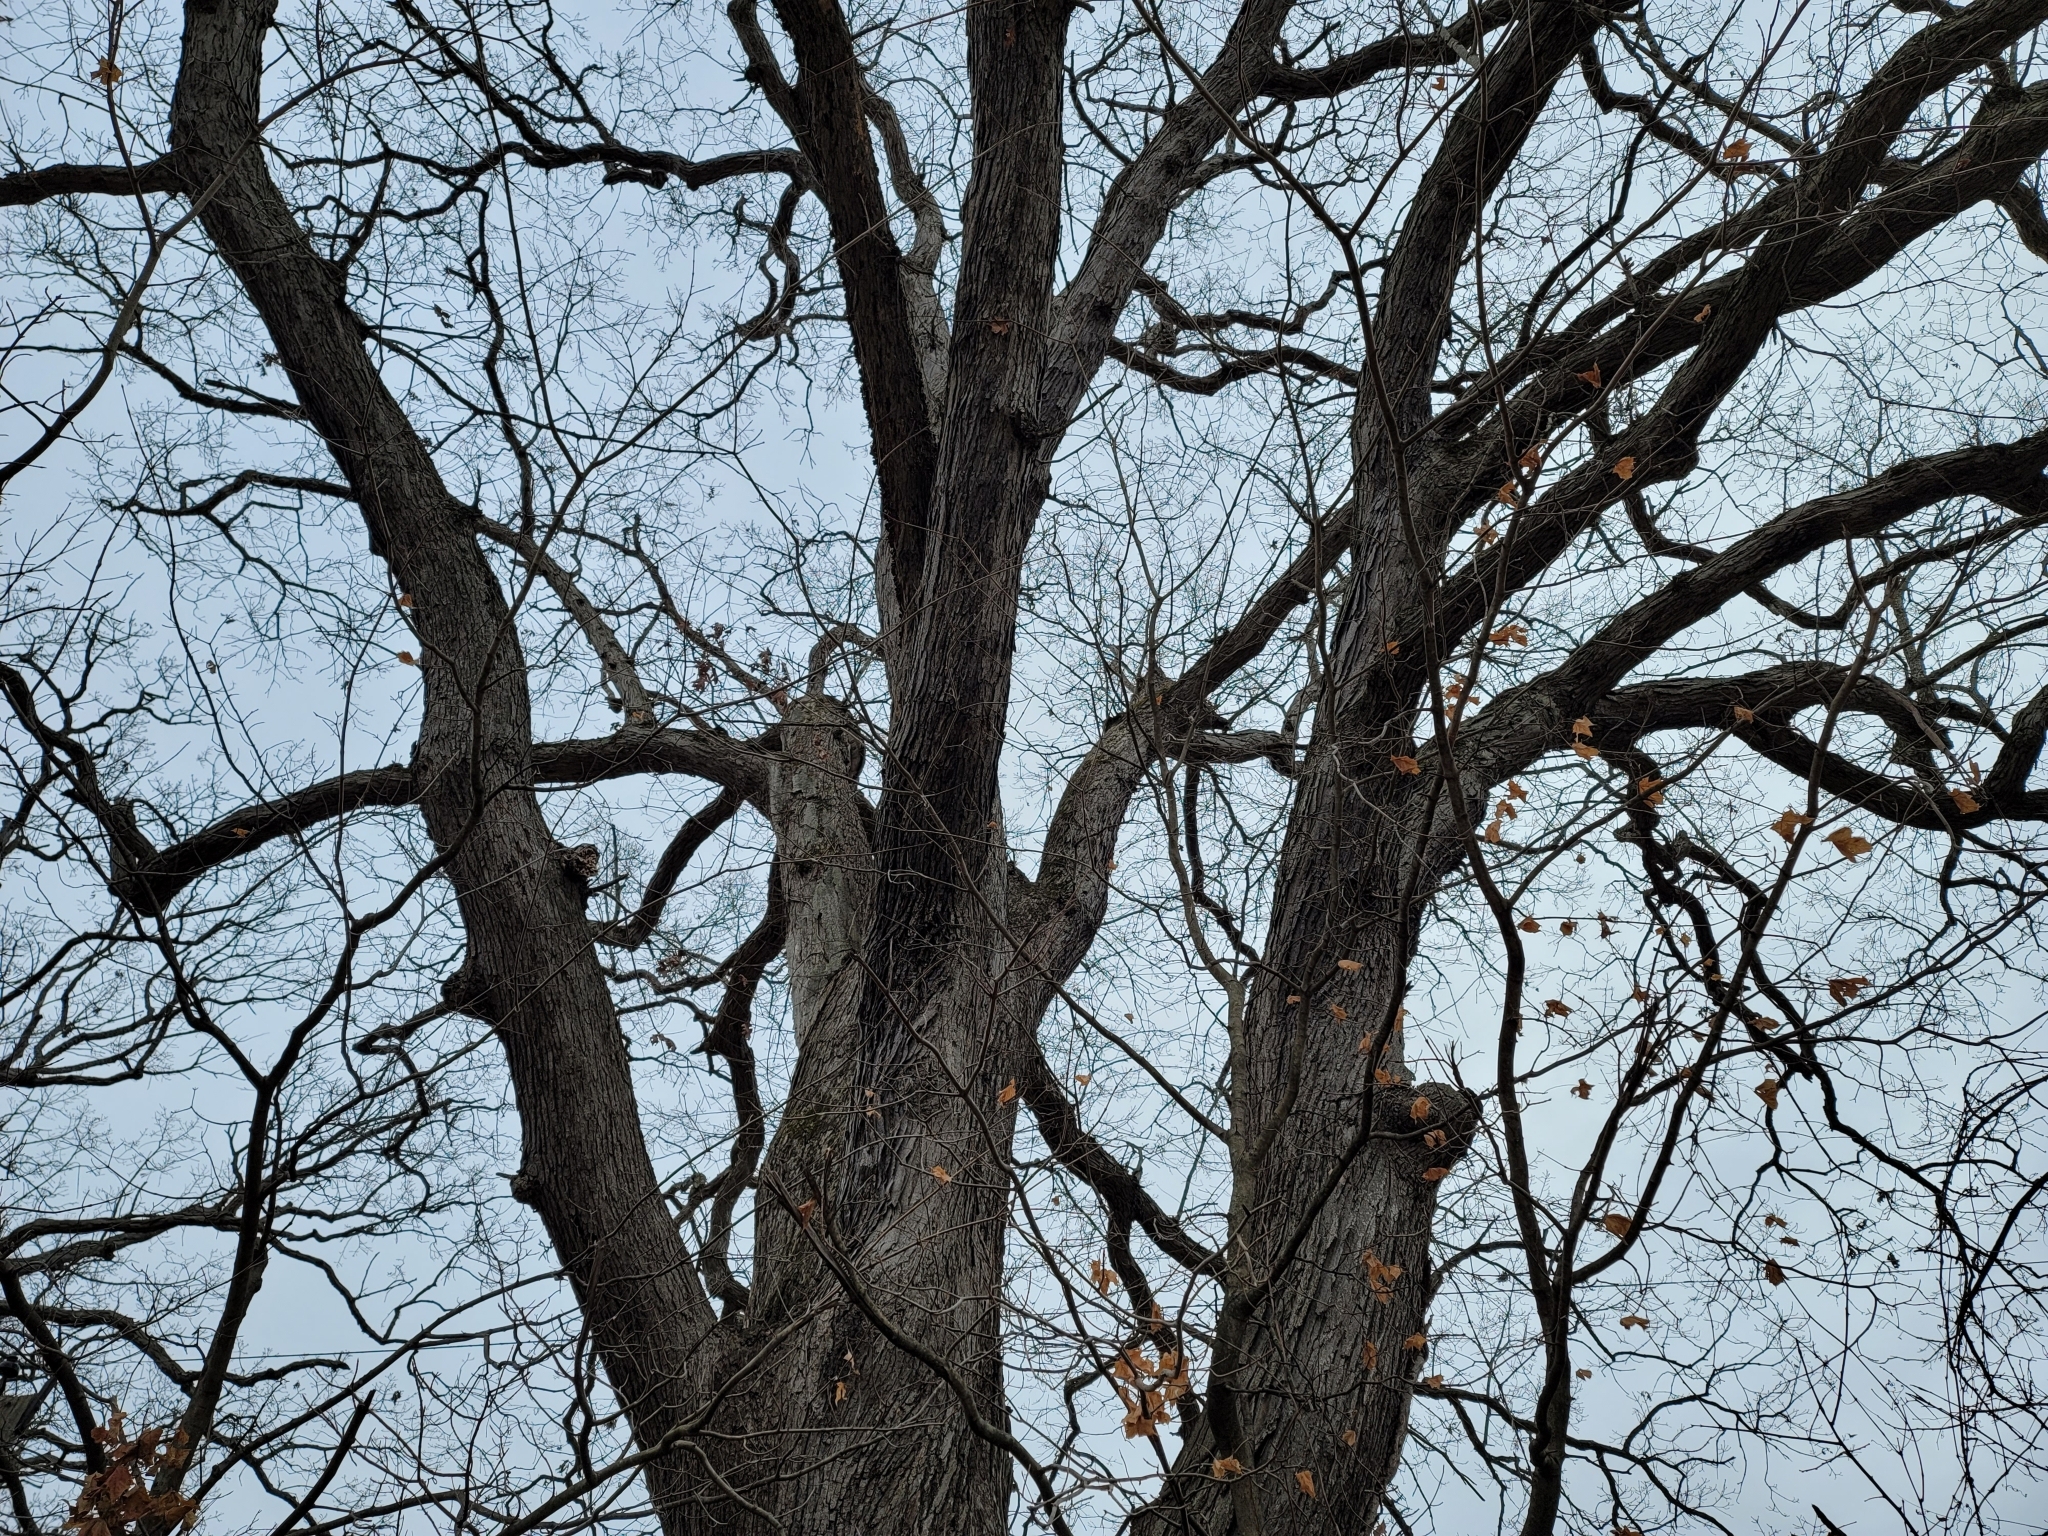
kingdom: Plantae
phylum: Tracheophyta
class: Magnoliopsida
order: Fagales
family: Fagaceae
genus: Quercus
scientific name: Quercus alba
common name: White oak
